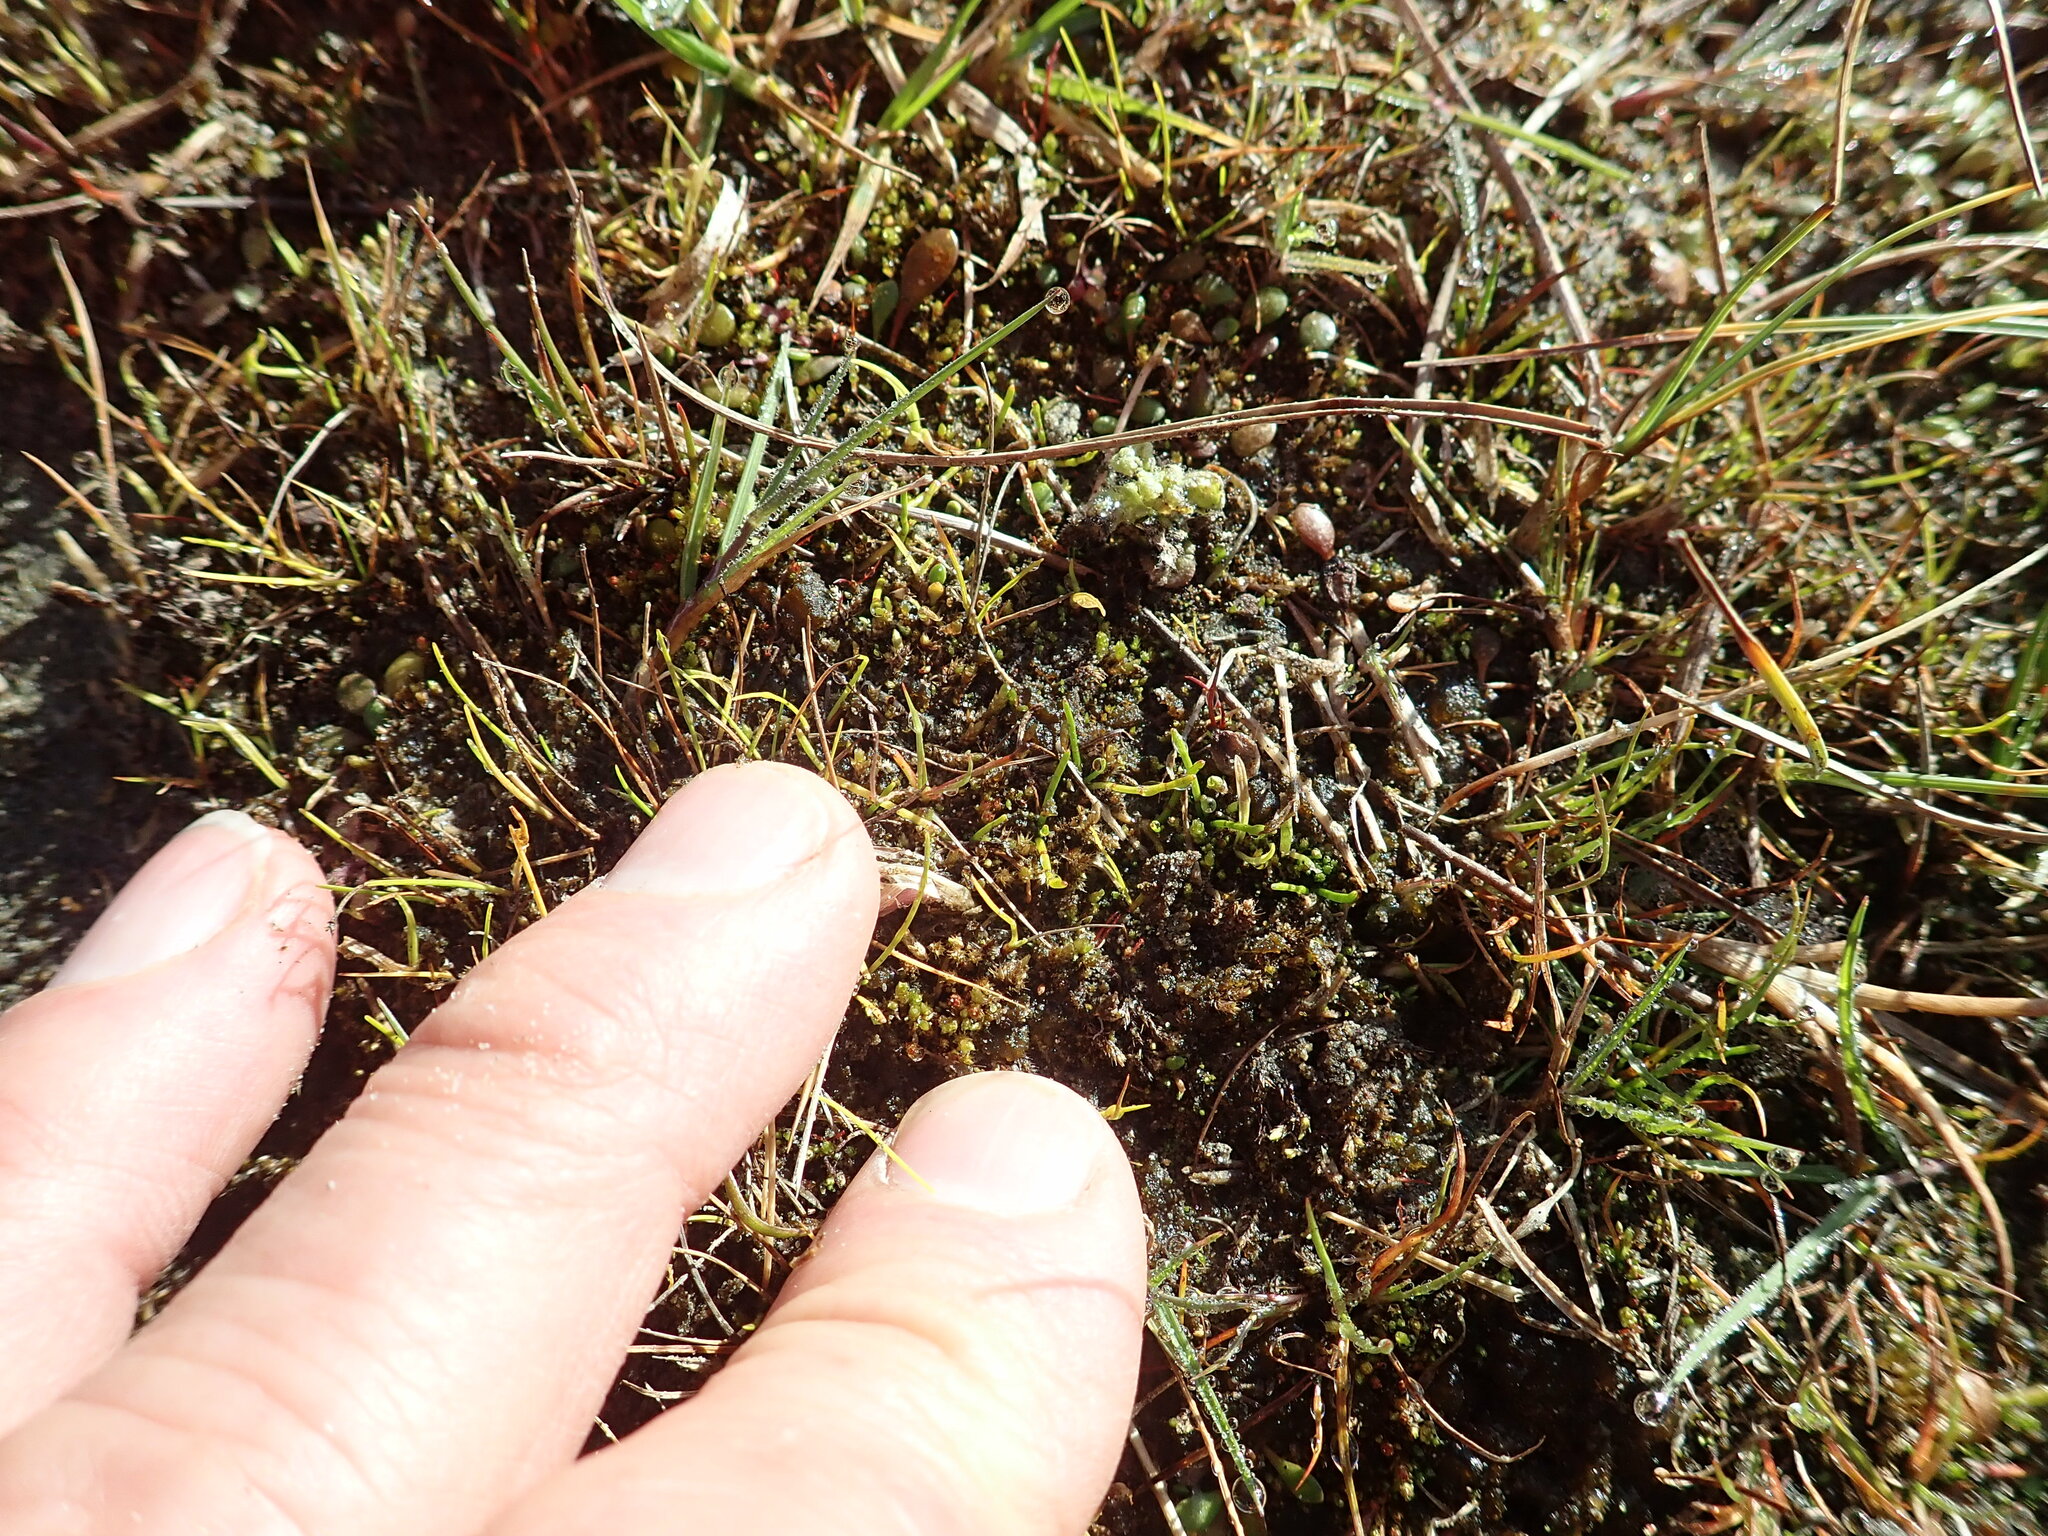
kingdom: Plantae
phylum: Tracheophyta
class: Magnoliopsida
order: Apiales
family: Apiaceae
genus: Lilaeopsis
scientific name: Lilaeopsis novae-zelandiae
